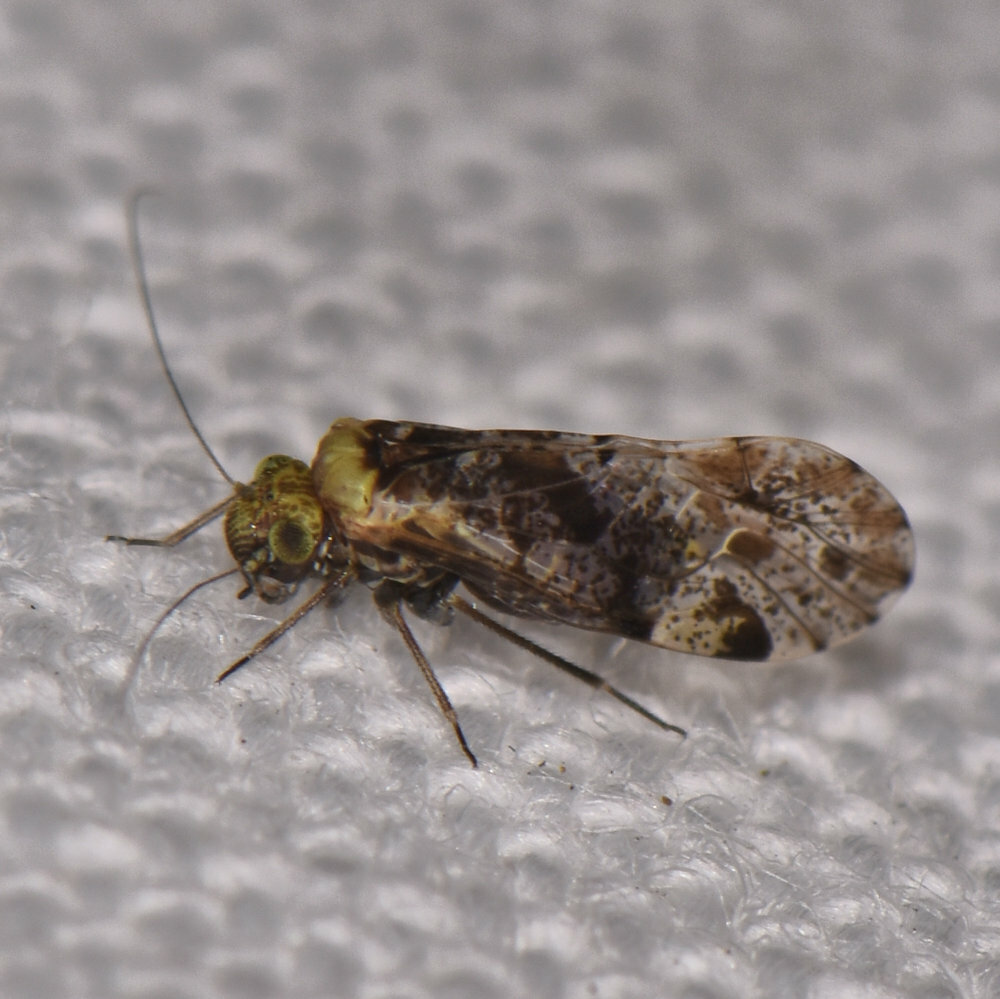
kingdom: Animalia
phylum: Arthropoda
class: Insecta
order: Psocodea
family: Psocidae
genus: Trichadenotecnum
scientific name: Trichadenotecnum alexanderae
